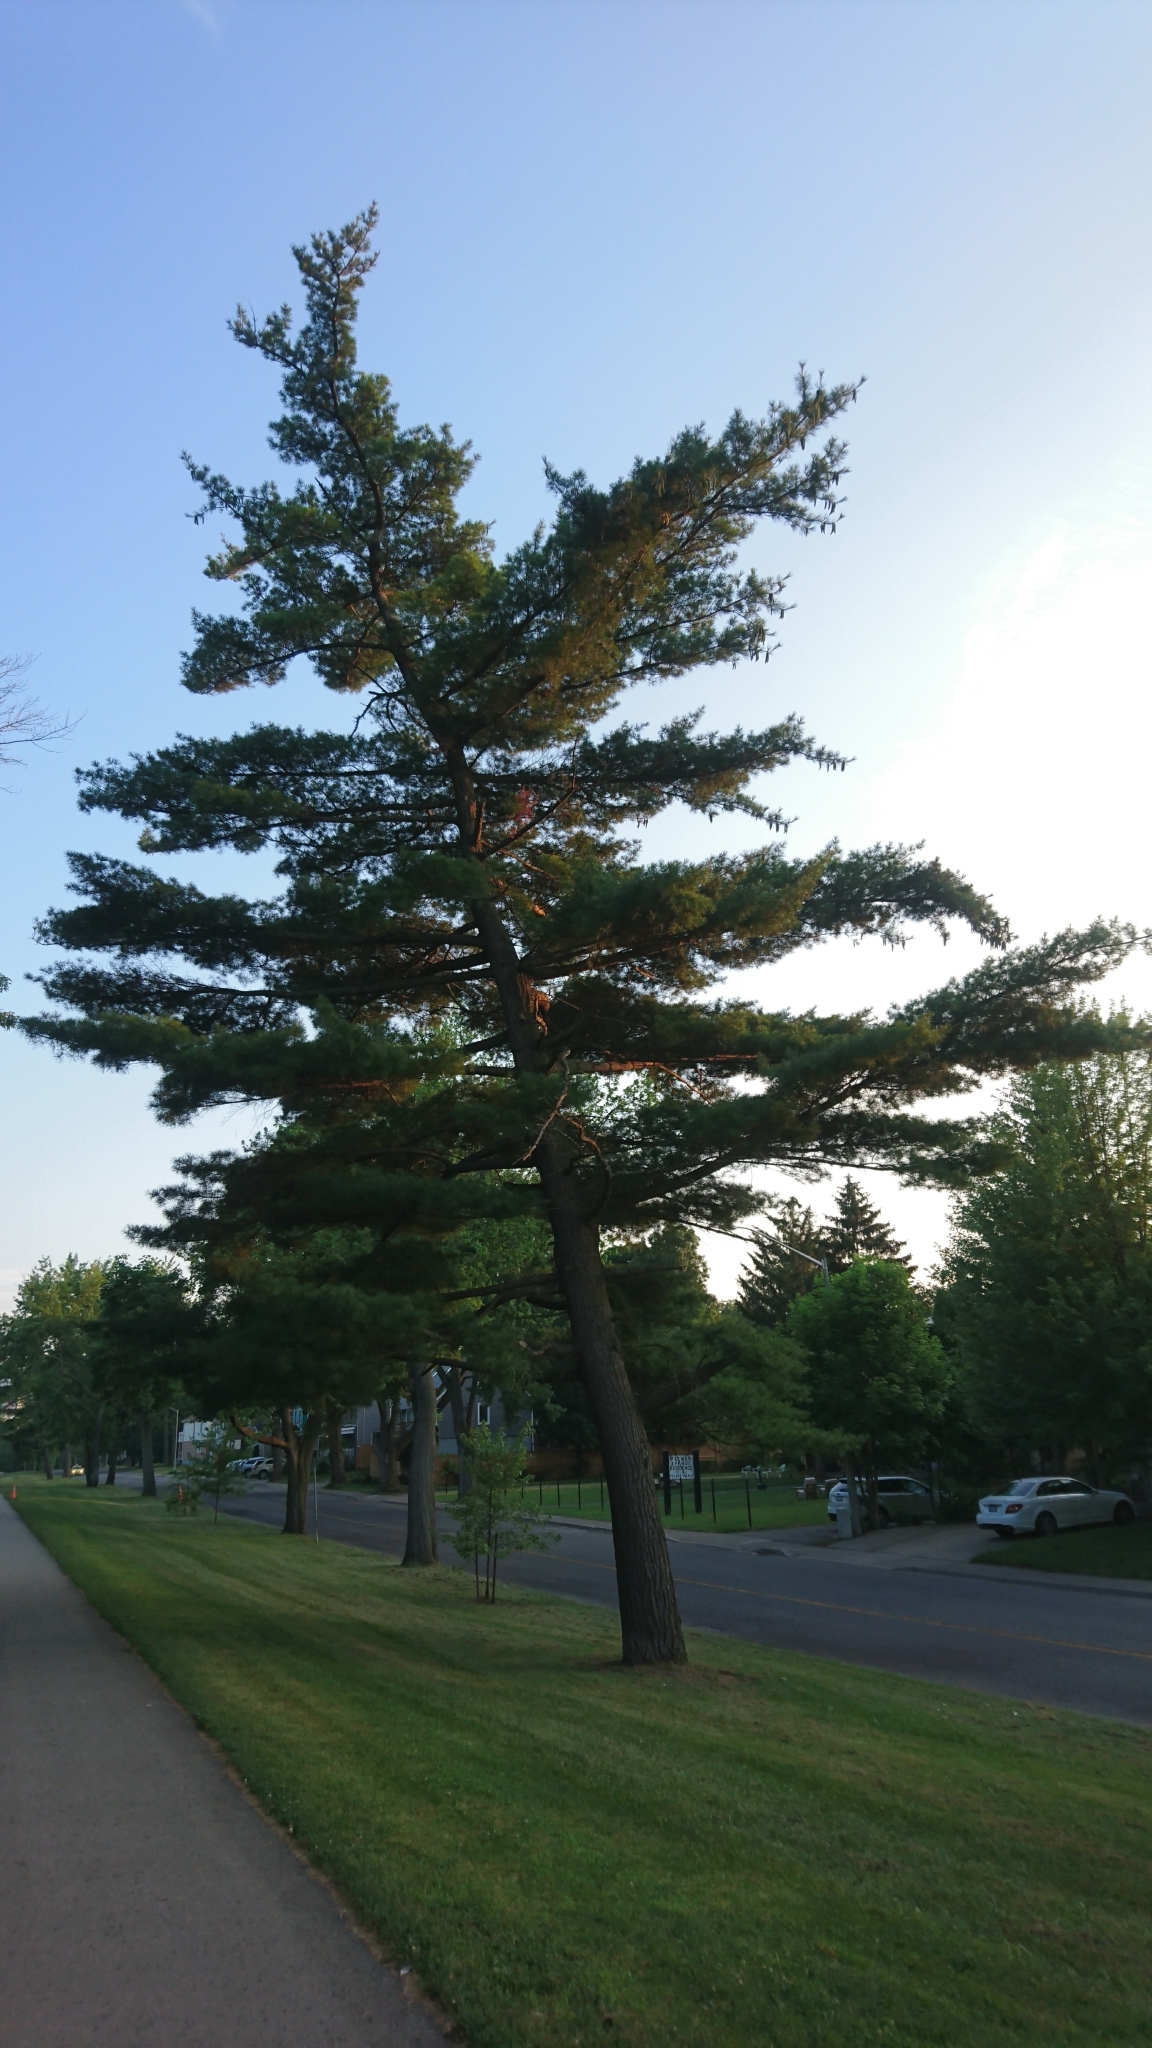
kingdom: Plantae
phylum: Tracheophyta
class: Pinopsida
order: Pinales
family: Pinaceae
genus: Pinus
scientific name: Pinus strobus
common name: Weymouth pine
